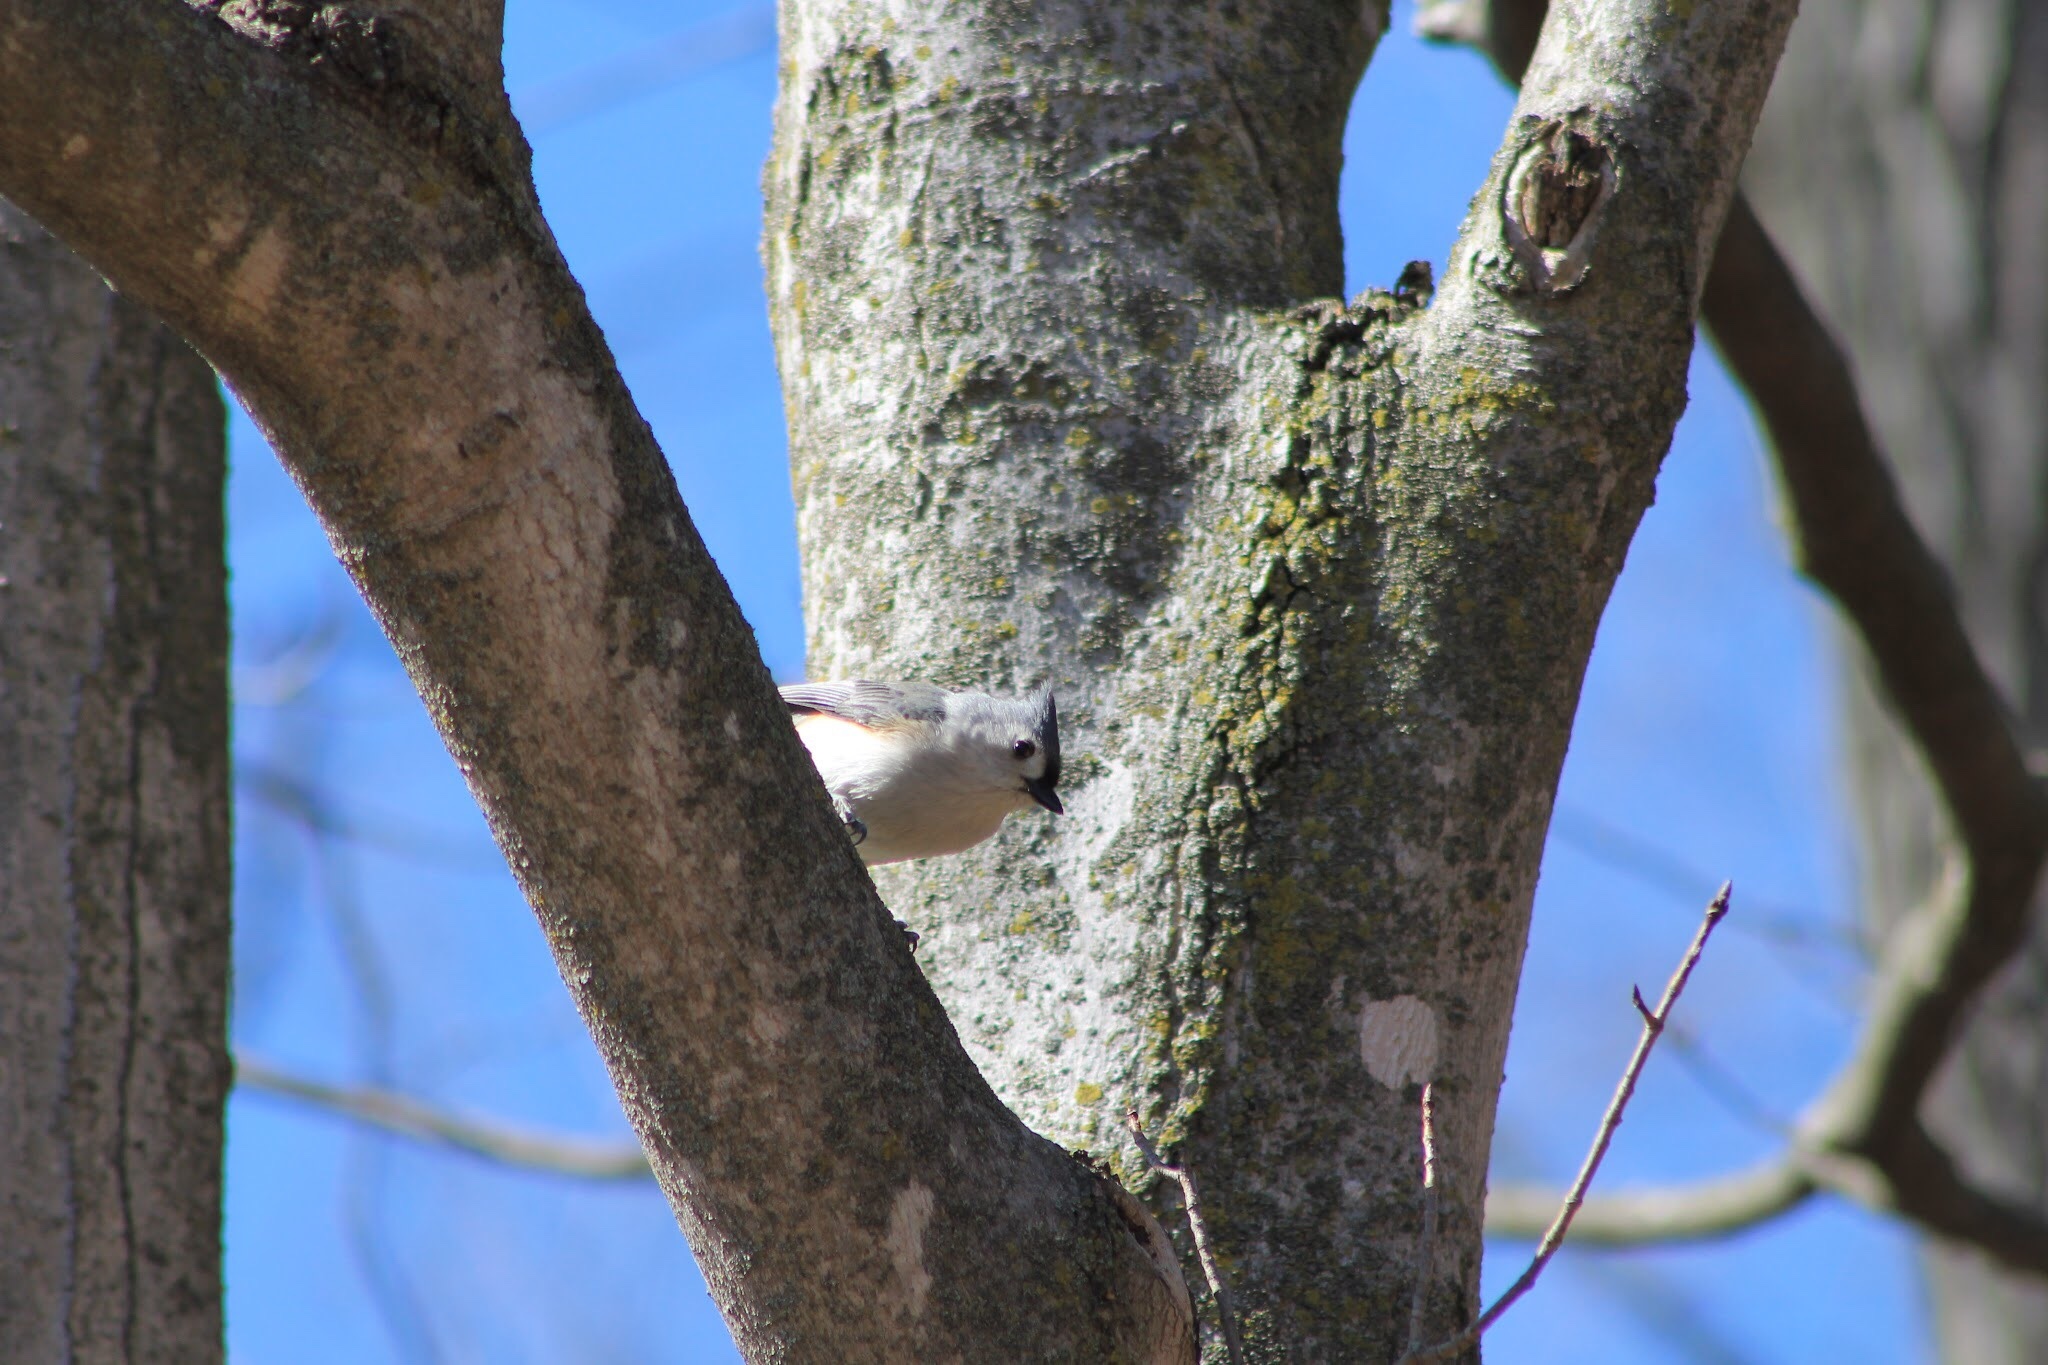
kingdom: Animalia
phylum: Chordata
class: Aves
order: Passeriformes
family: Paridae
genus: Baeolophus
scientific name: Baeolophus bicolor
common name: Tufted titmouse
